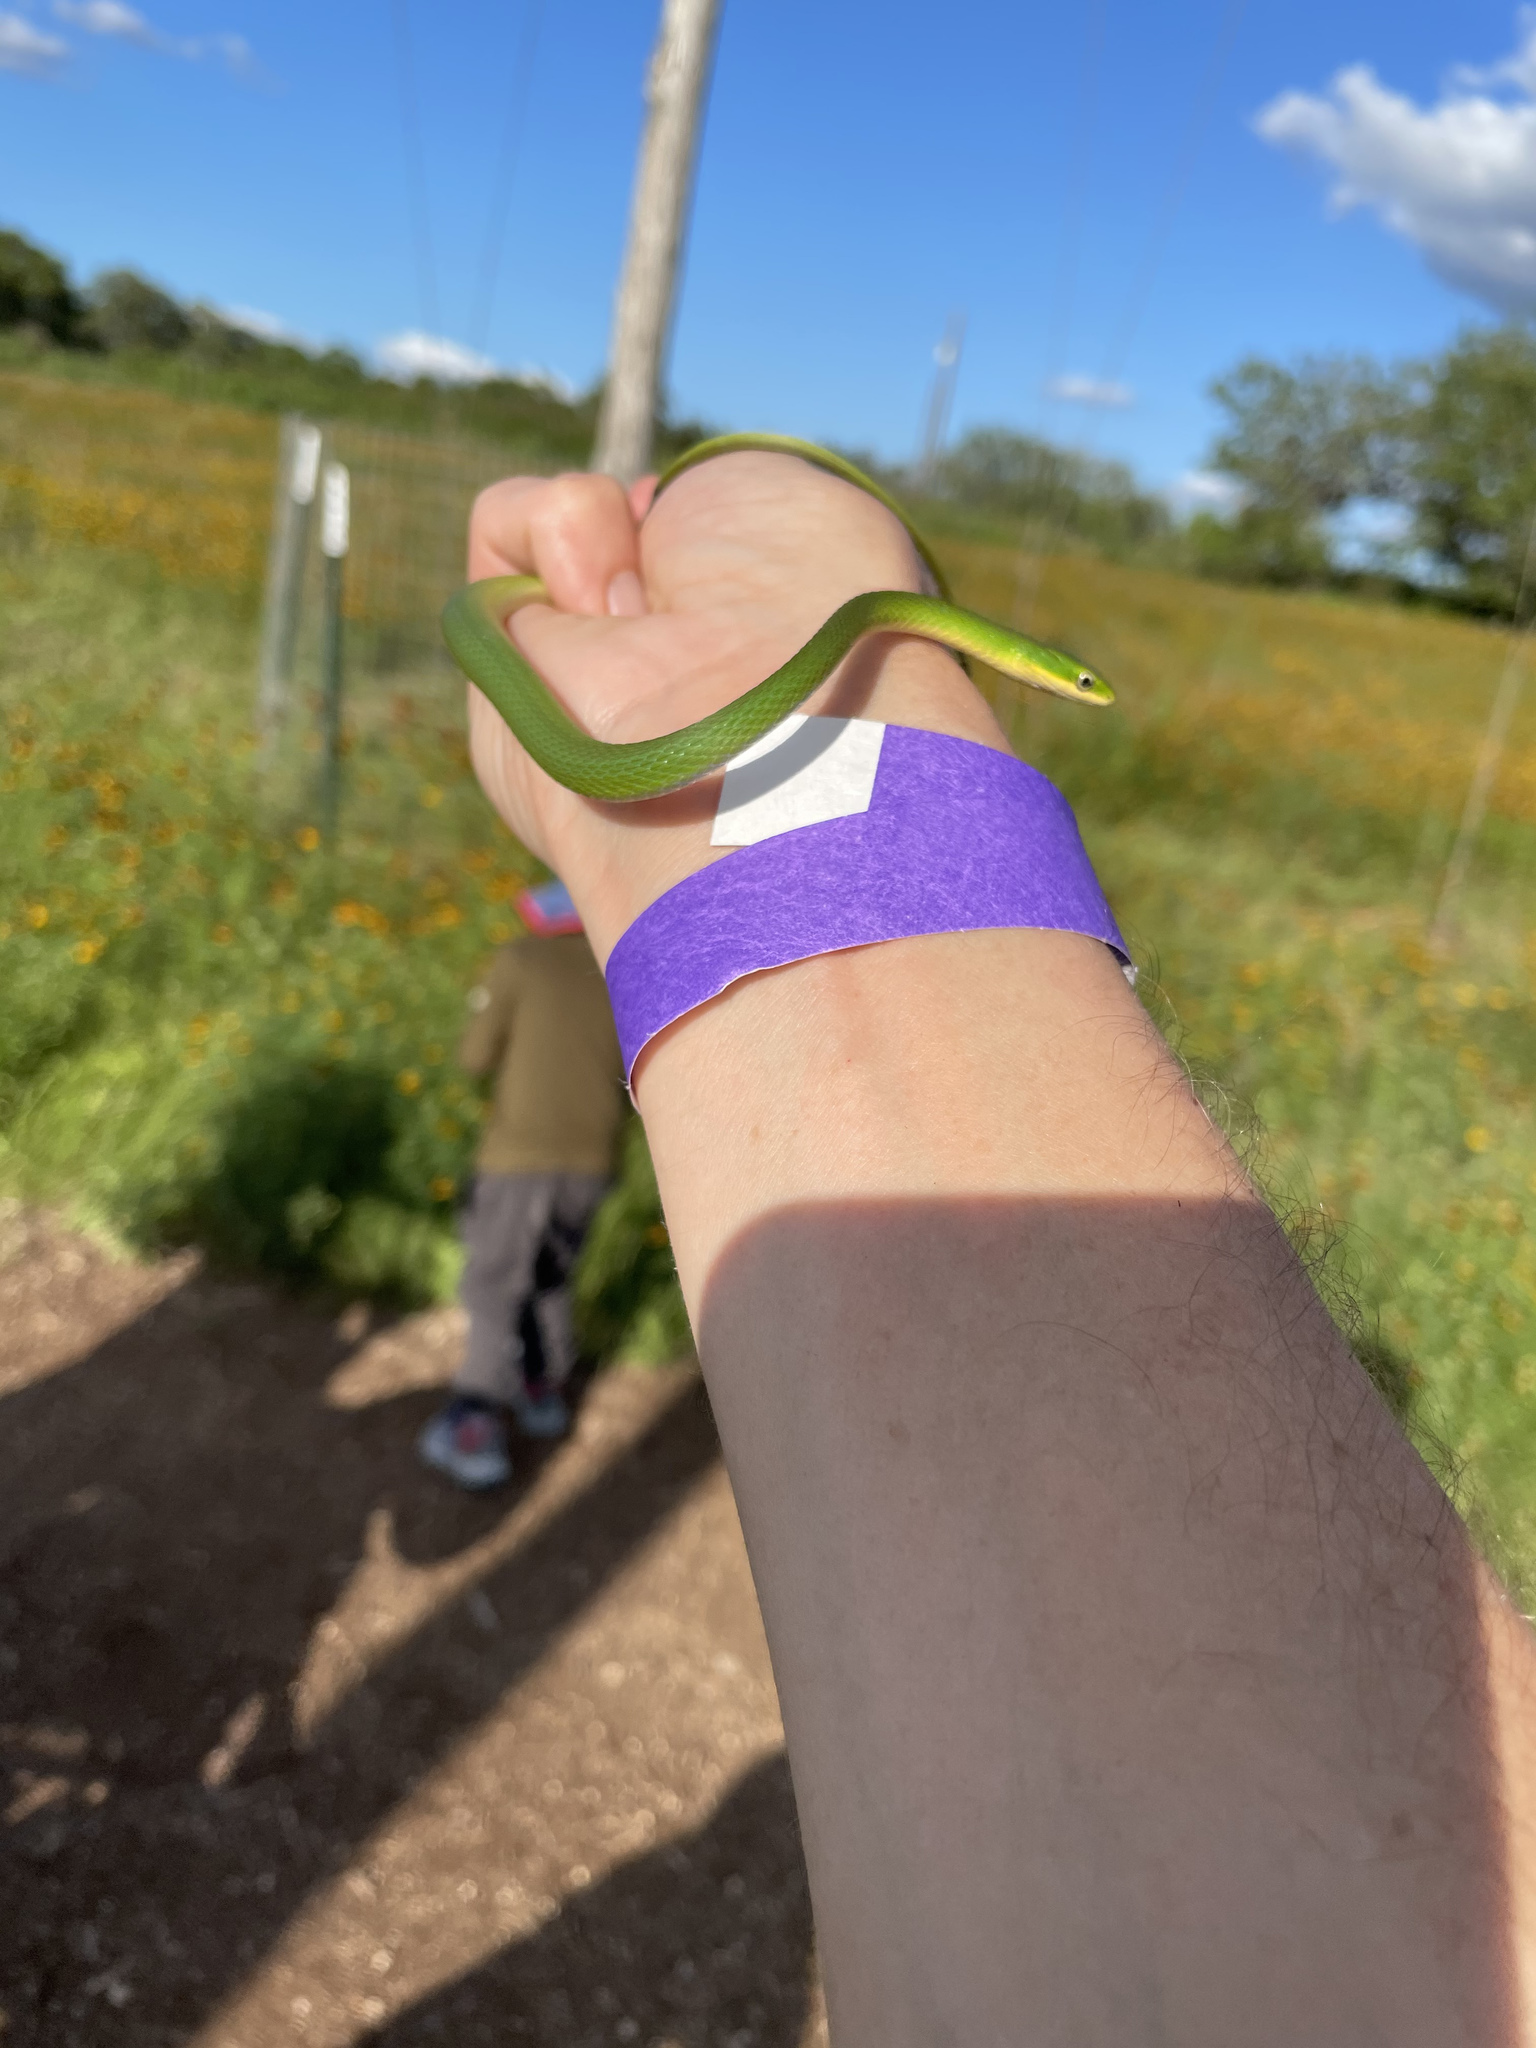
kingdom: Animalia
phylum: Chordata
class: Squamata
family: Colubridae
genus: Opheodrys
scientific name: Opheodrys aestivus
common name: Rough greensnake
